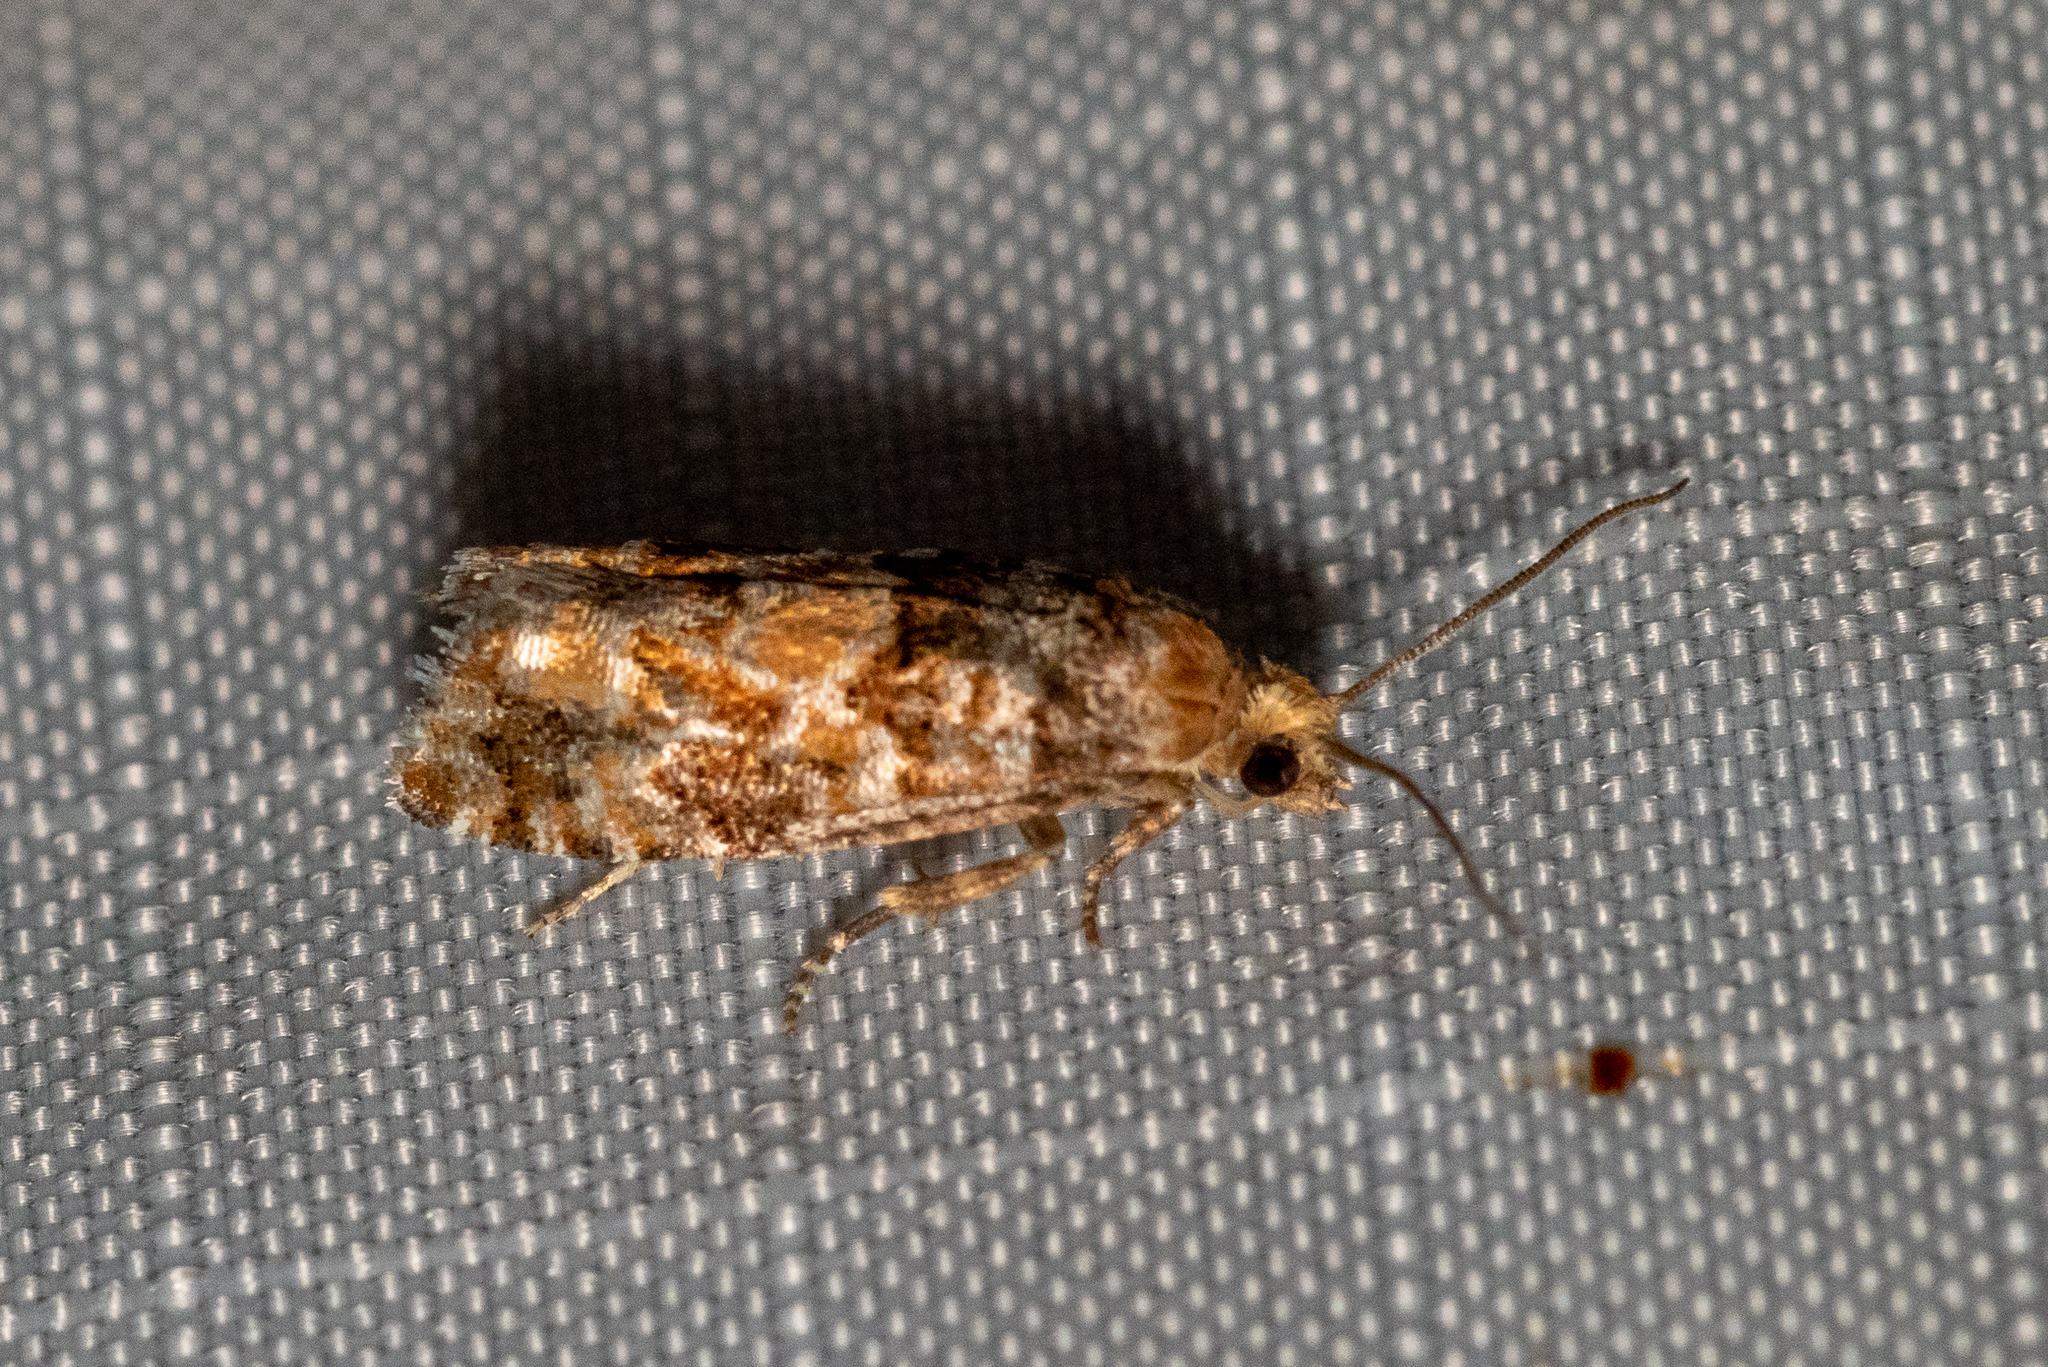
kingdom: Animalia
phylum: Arthropoda
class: Insecta
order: Lepidoptera
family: Tortricidae
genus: Eucopina
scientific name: Eucopina tocullionana
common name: White pinecone borer moth
